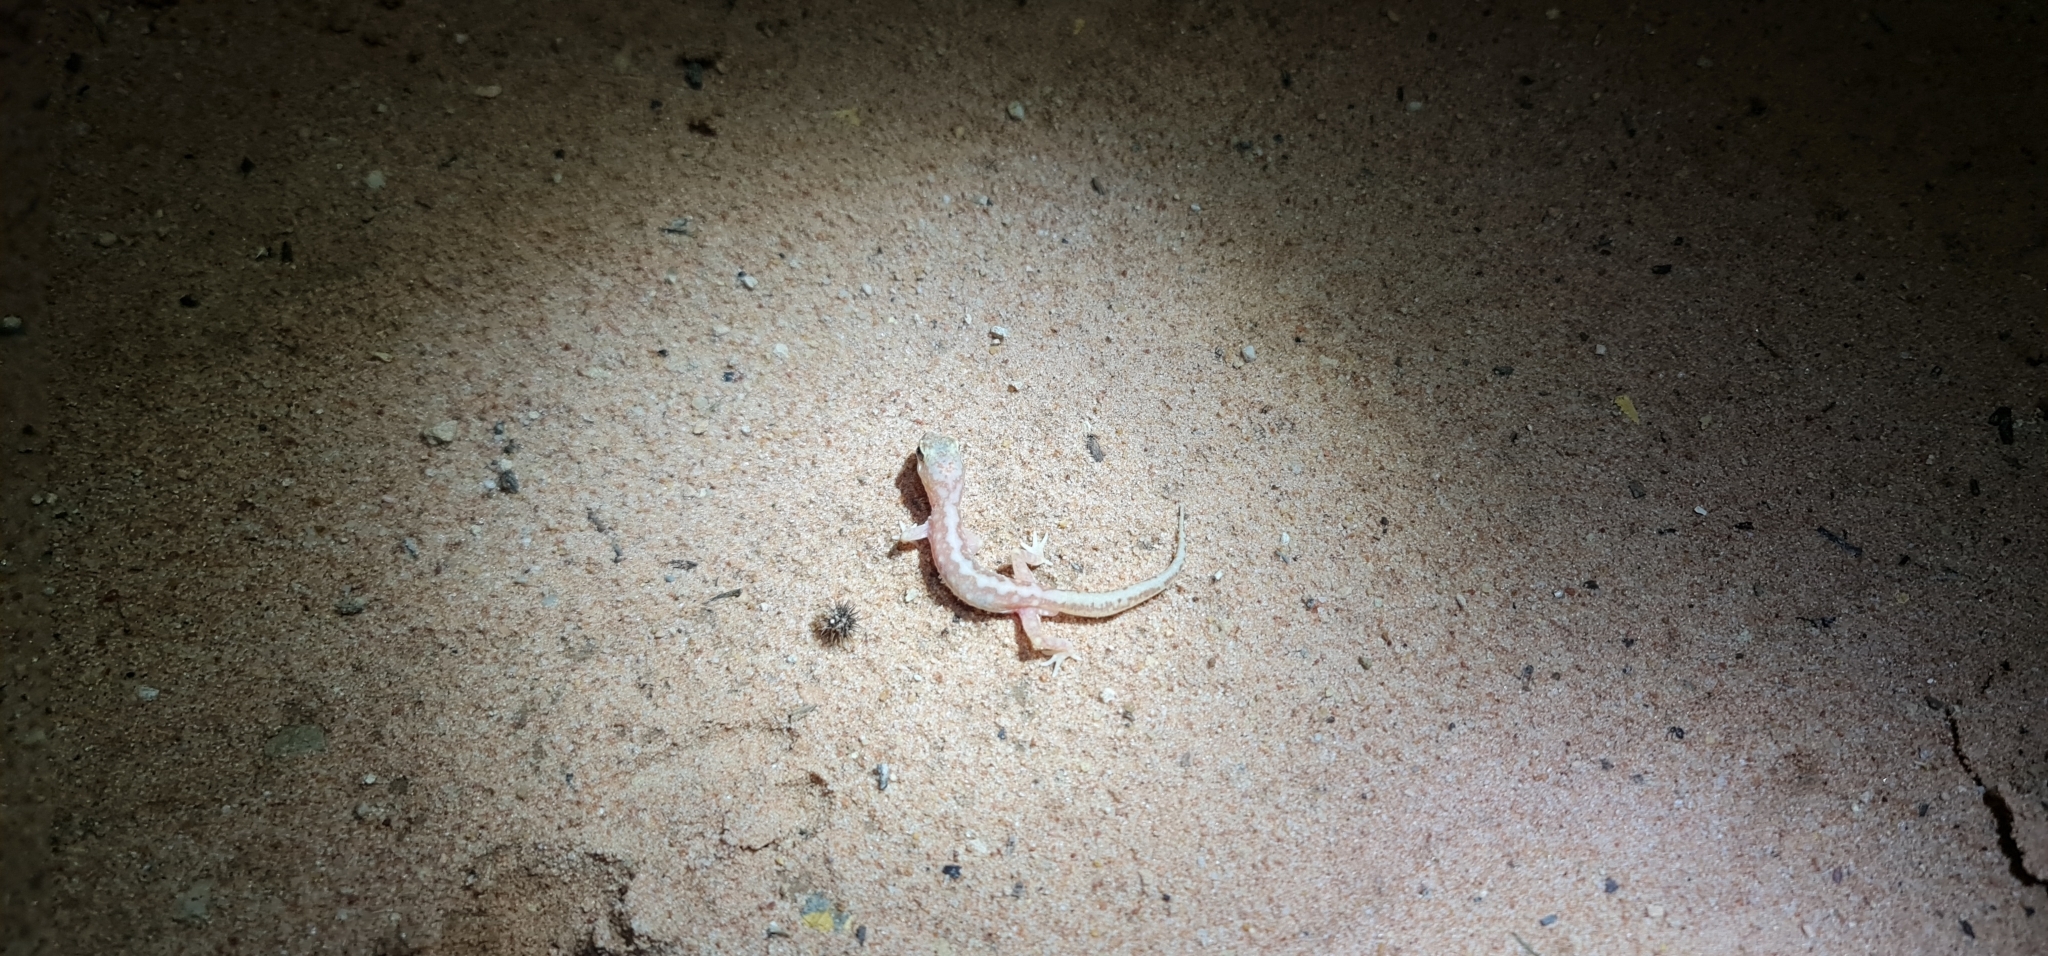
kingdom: Animalia
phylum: Chordata
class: Squamata
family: Diplodactylidae
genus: Lucasium
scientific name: Lucasium damaeum
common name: Beaded gecko
